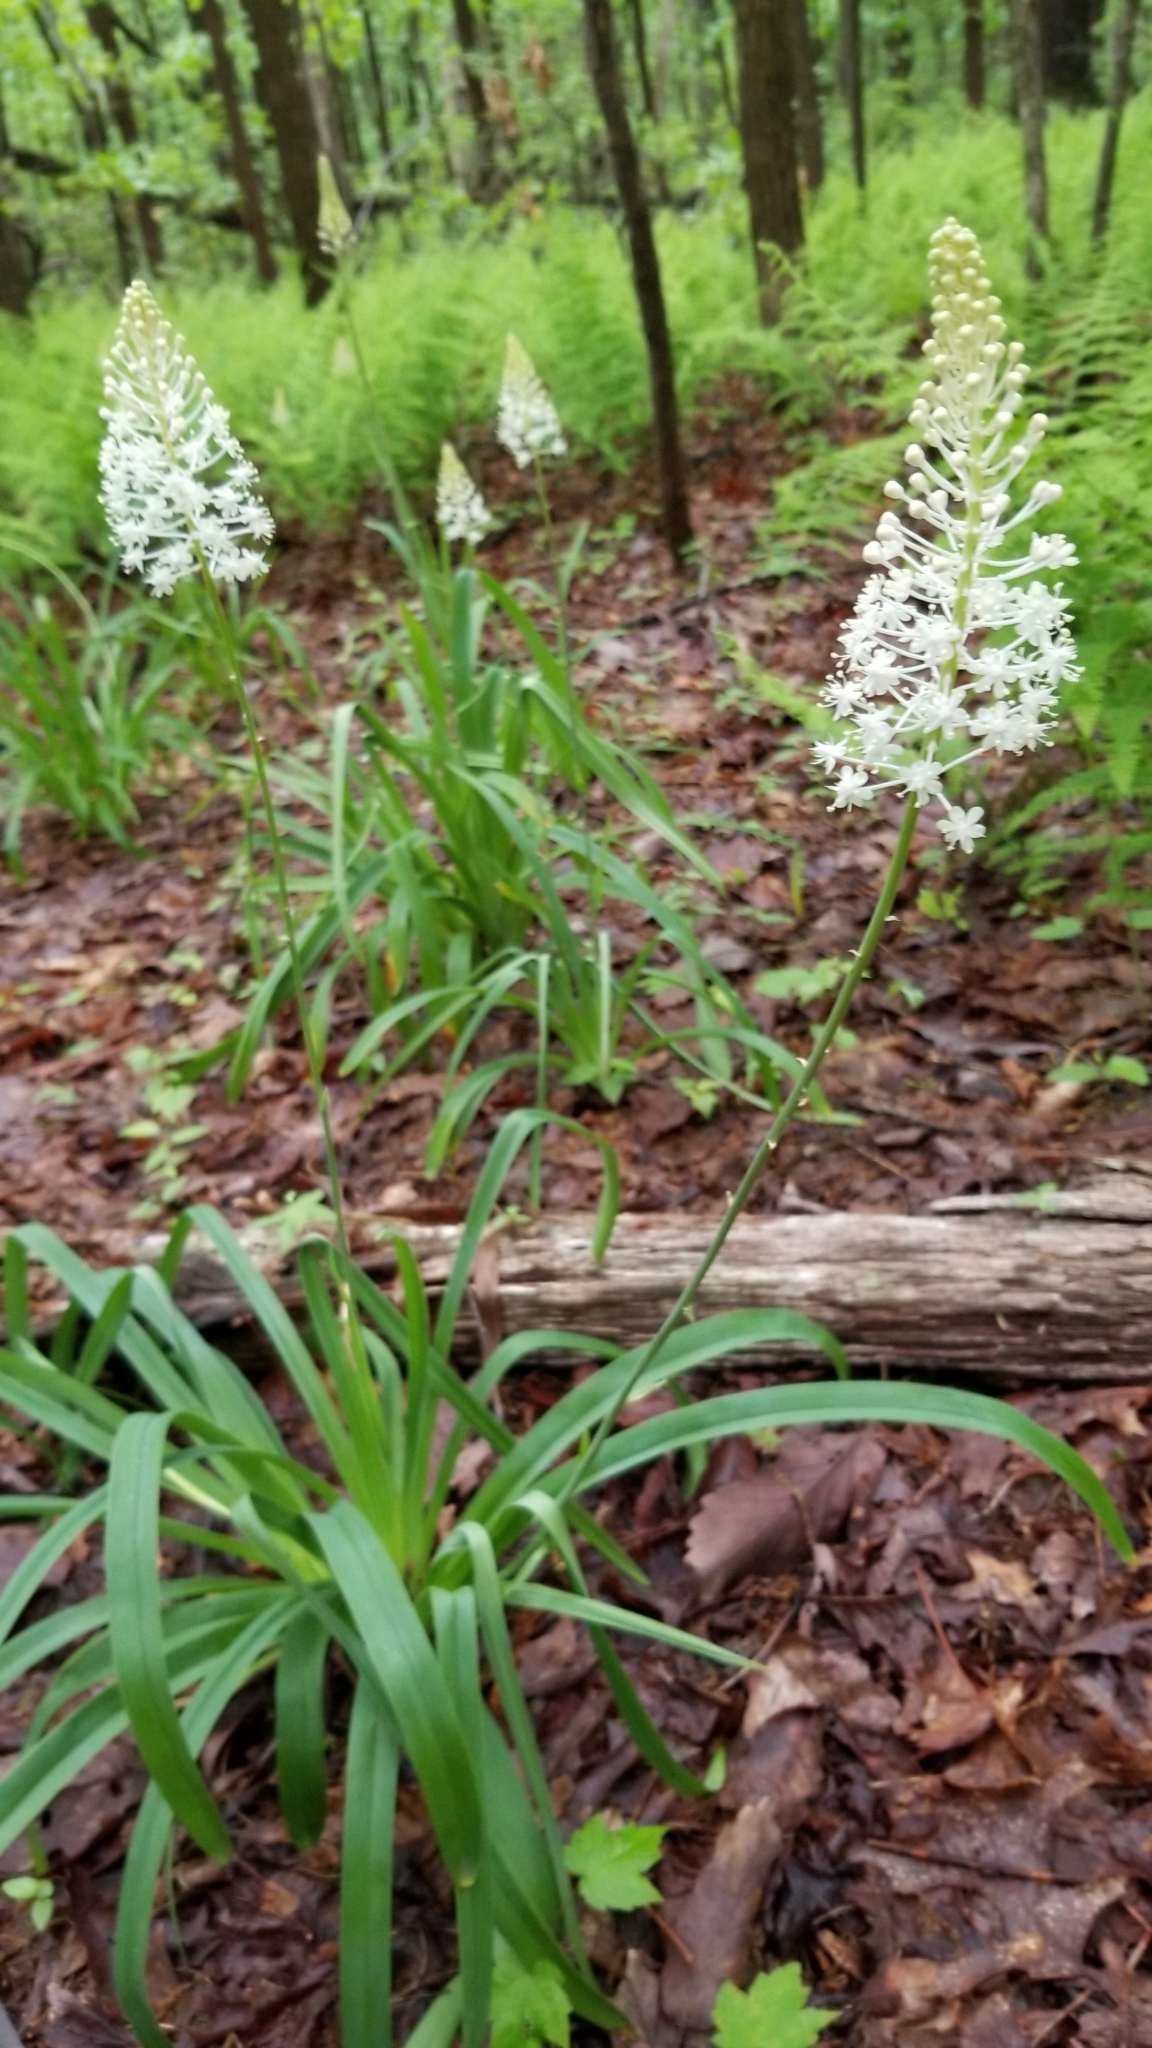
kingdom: Plantae
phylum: Tracheophyta
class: Liliopsida
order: Liliales
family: Melanthiaceae
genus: Amianthium
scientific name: Amianthium muscitoxicum
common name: Fly-poison
